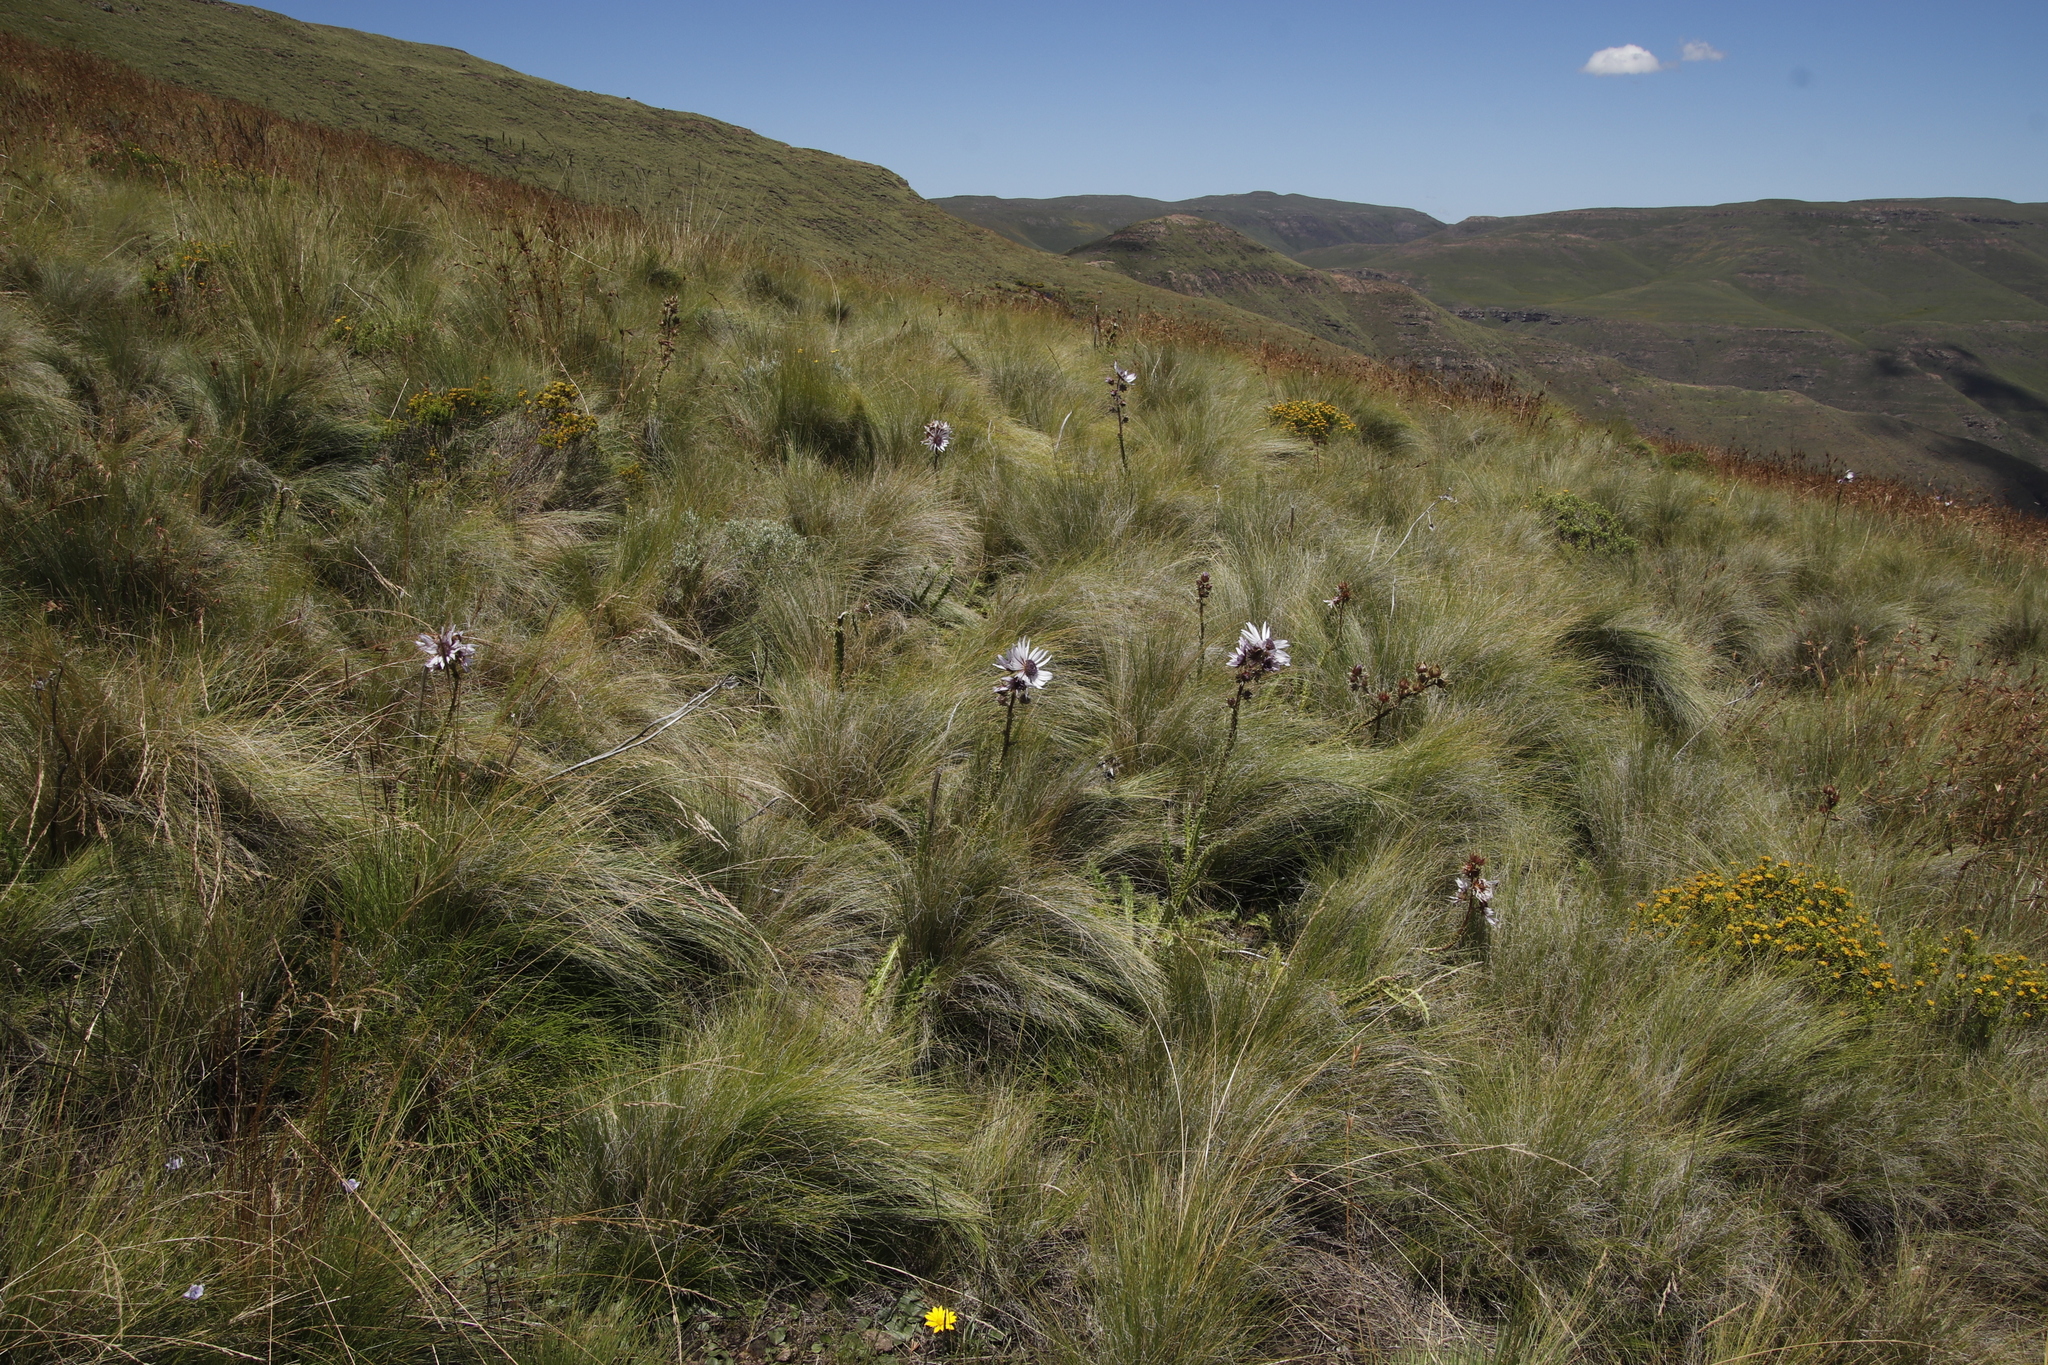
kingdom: Plantae
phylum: Tracheophyta
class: Magnoliopsida
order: Asterales
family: Asteraceae
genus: Berkheya
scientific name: Berkheya purpurea
